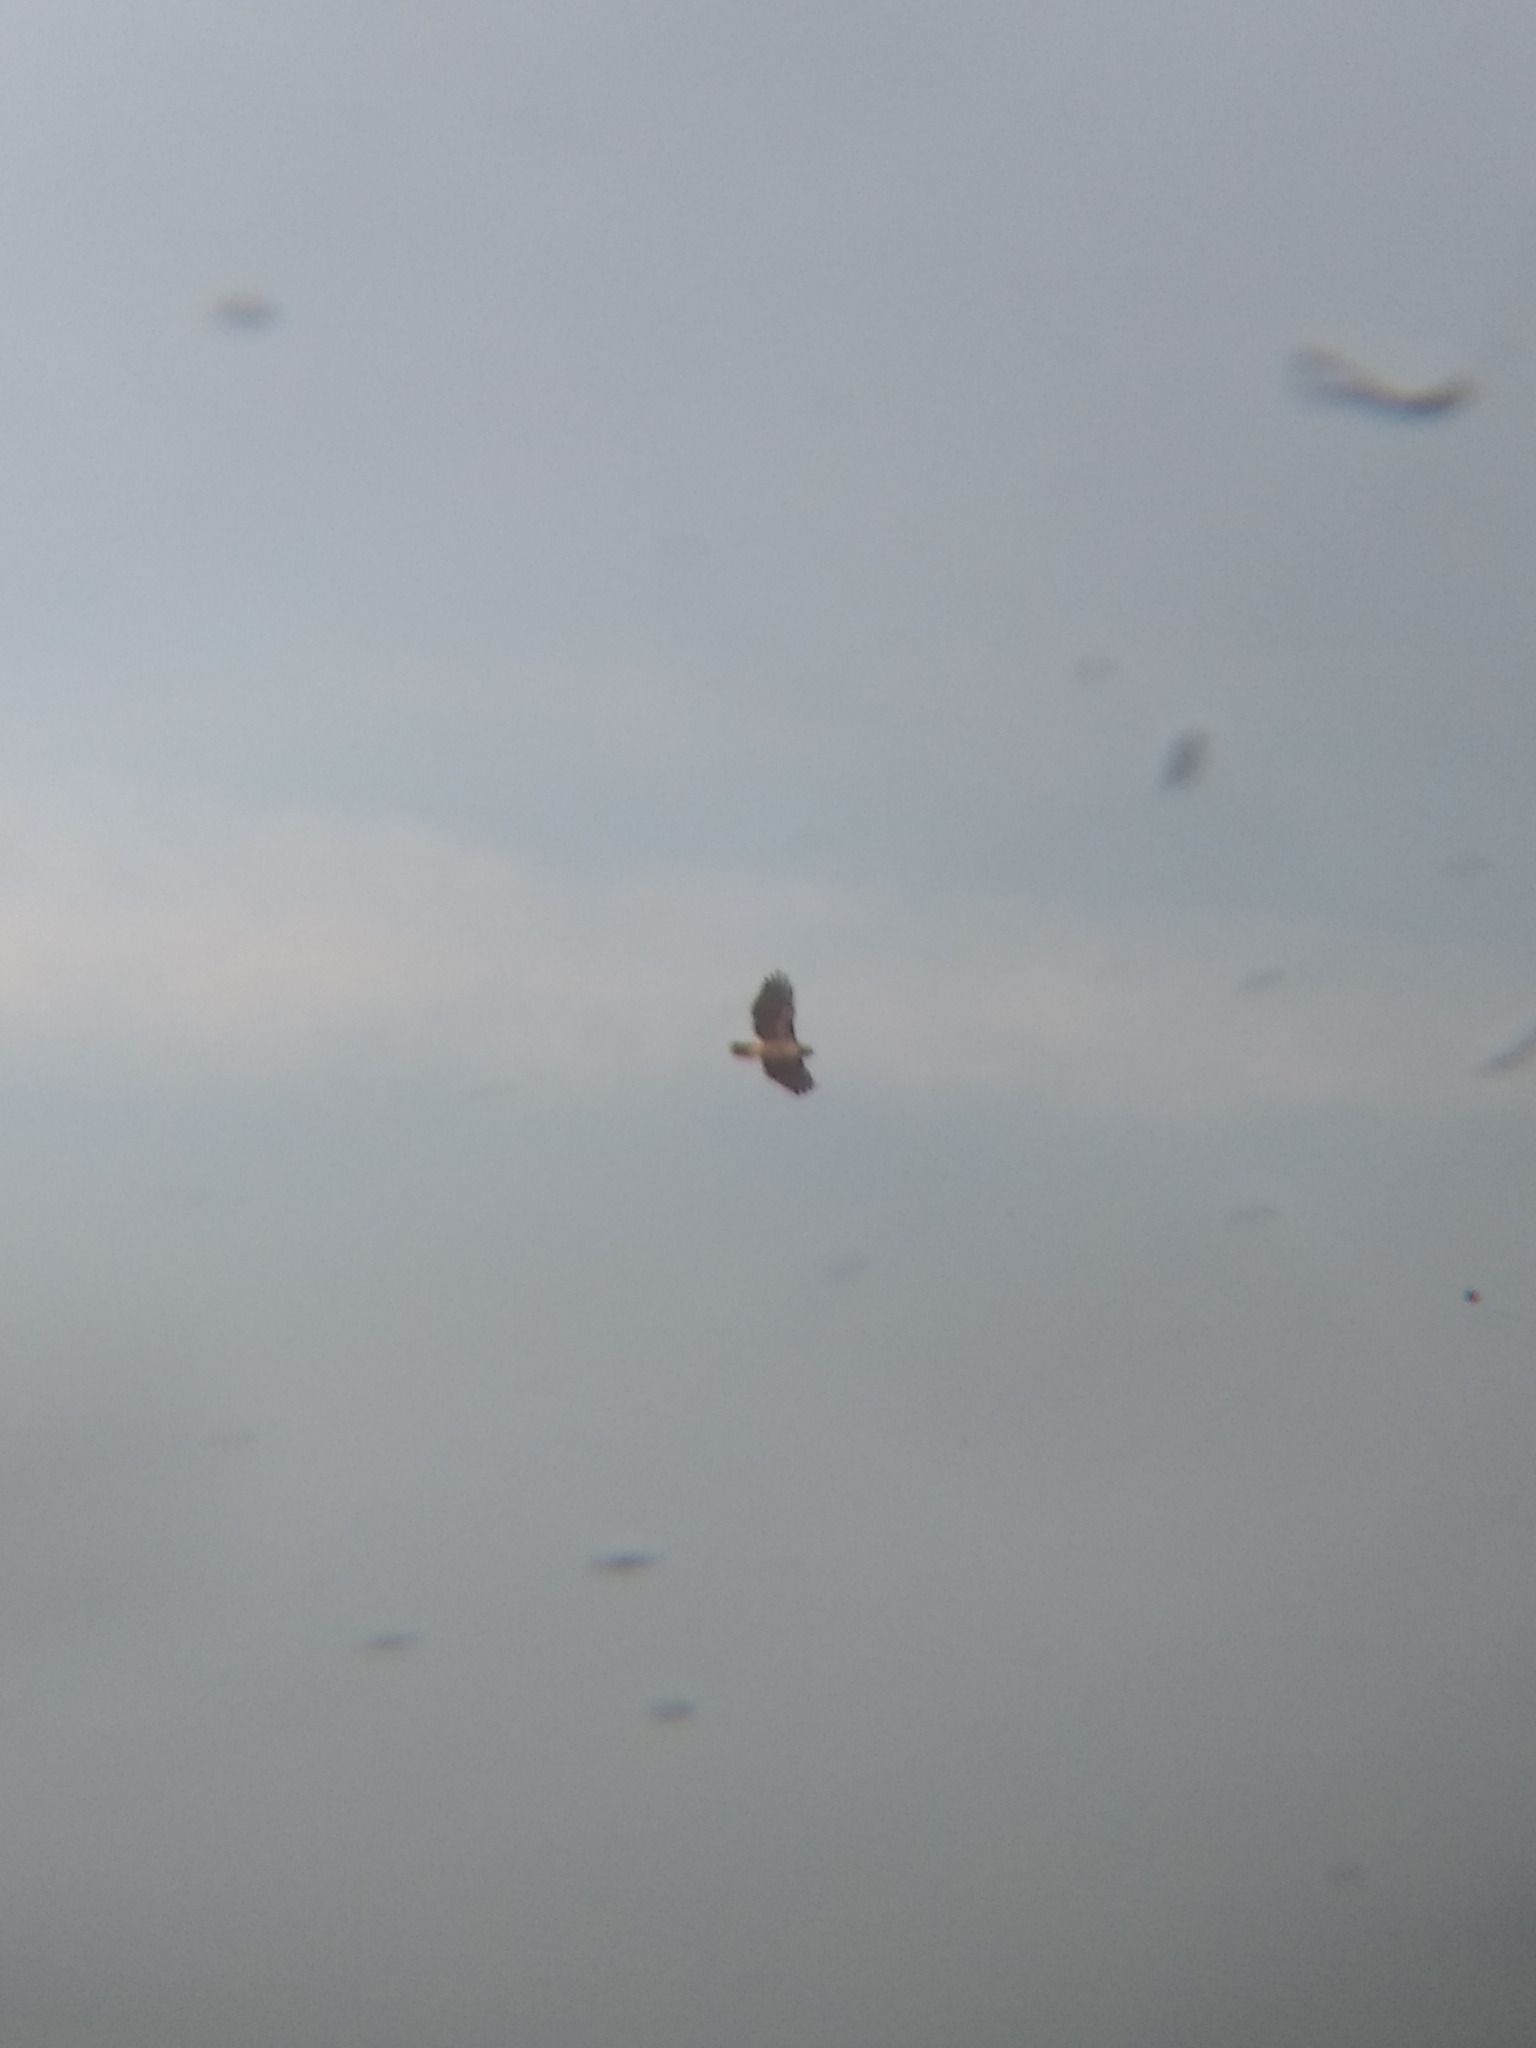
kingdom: Animalia
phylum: Chordata
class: Aves
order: Accipitriformes
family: Accipitridae
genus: Buteo
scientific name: Buteo jamaicensis
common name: Red-tailed hawk
